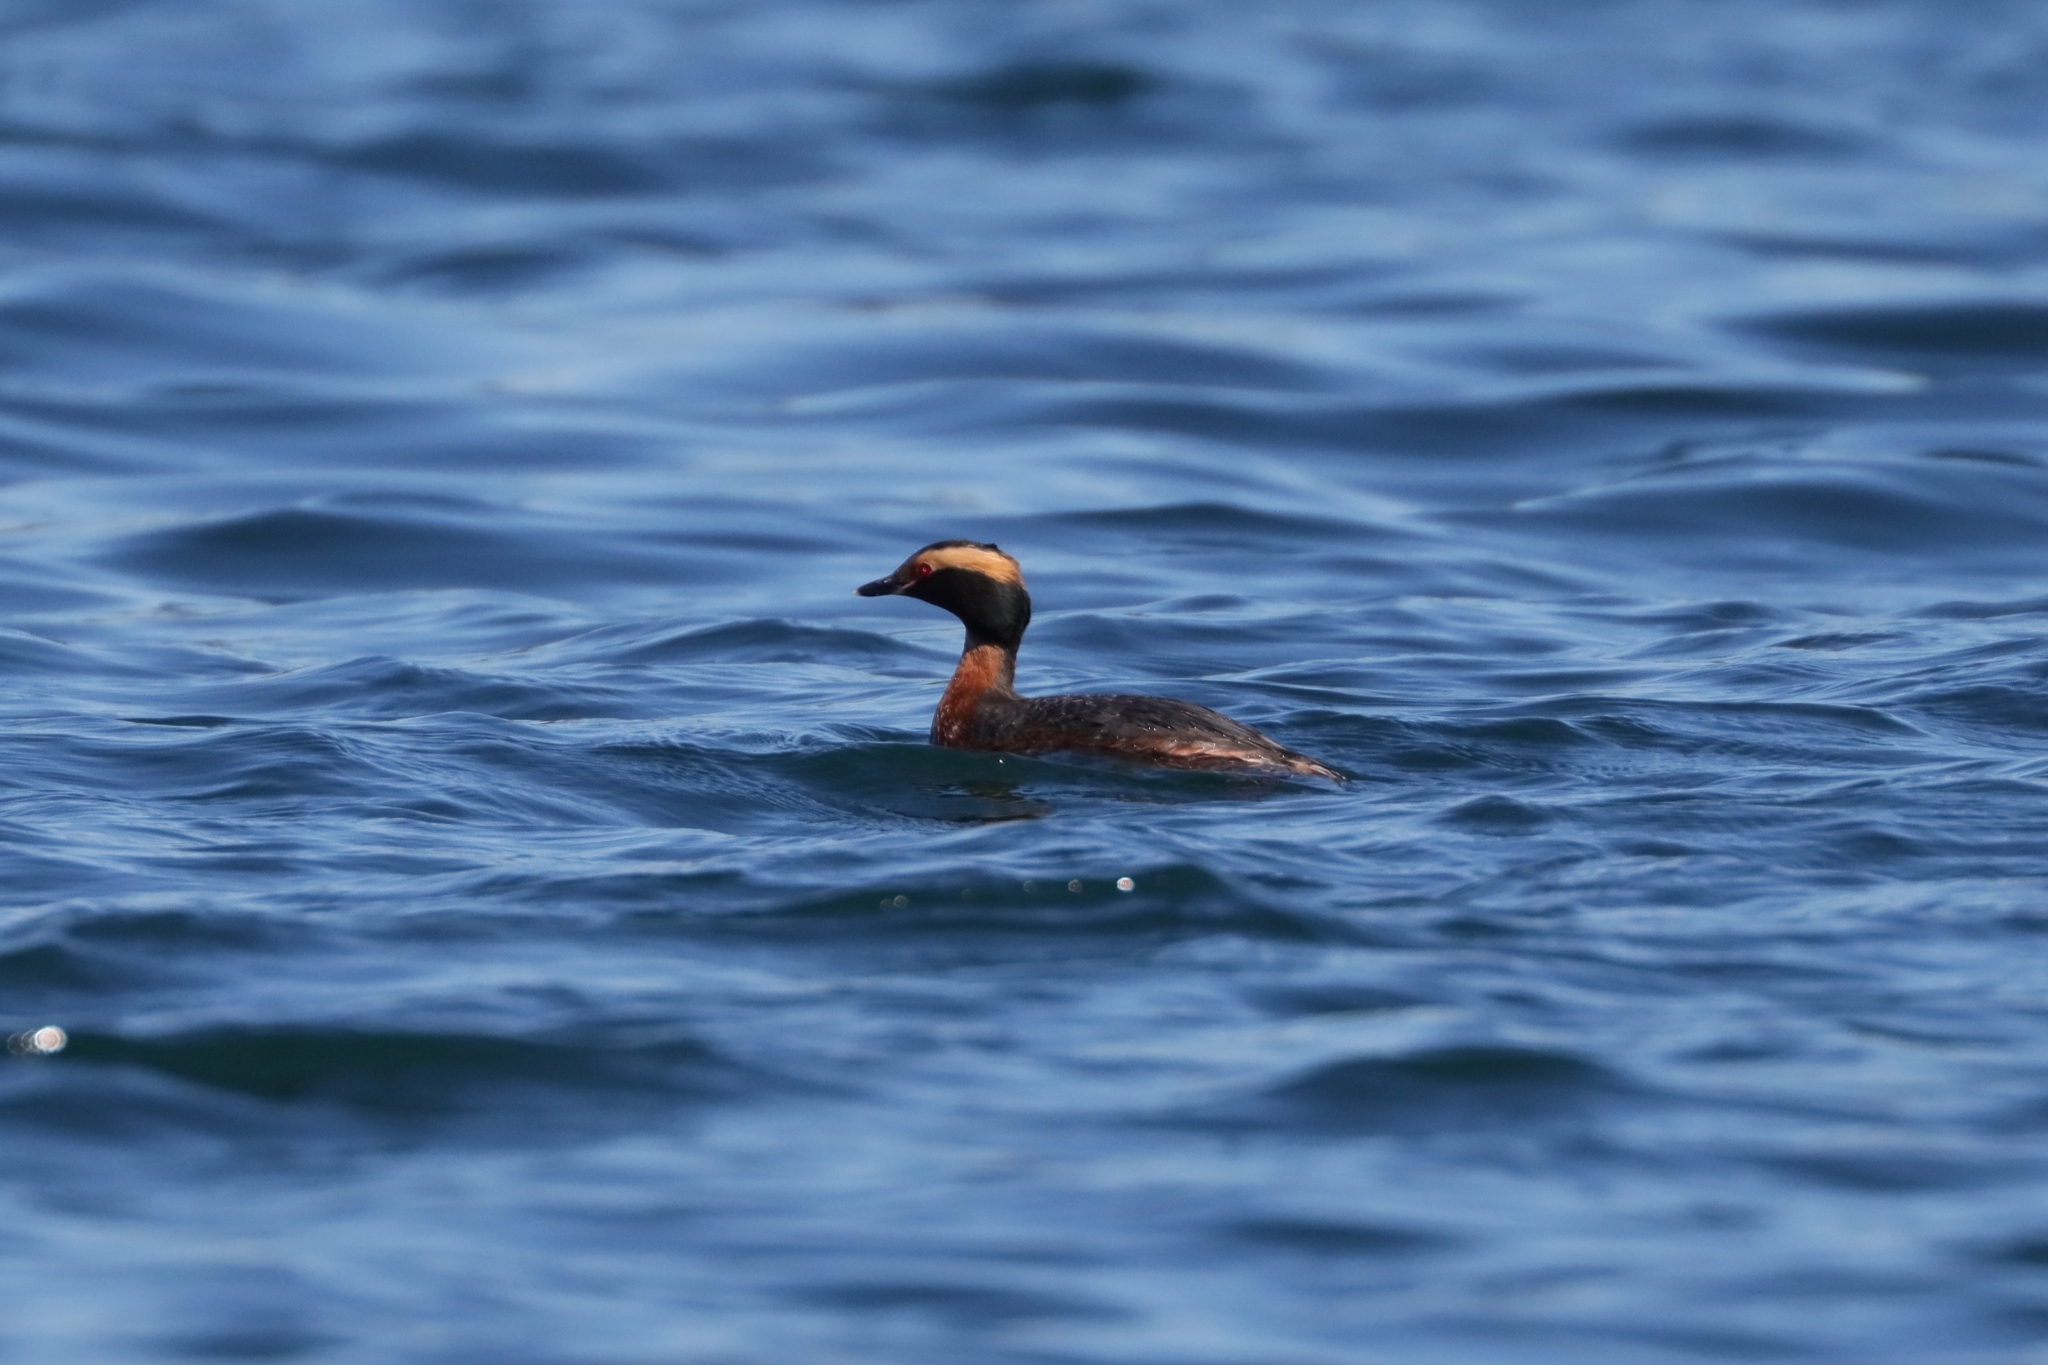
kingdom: Animalia
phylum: Chordata
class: Aves
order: Podicipediformes
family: Podicipedidae
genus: Podiceps
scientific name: Podiceps auritus
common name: Horned grebe
